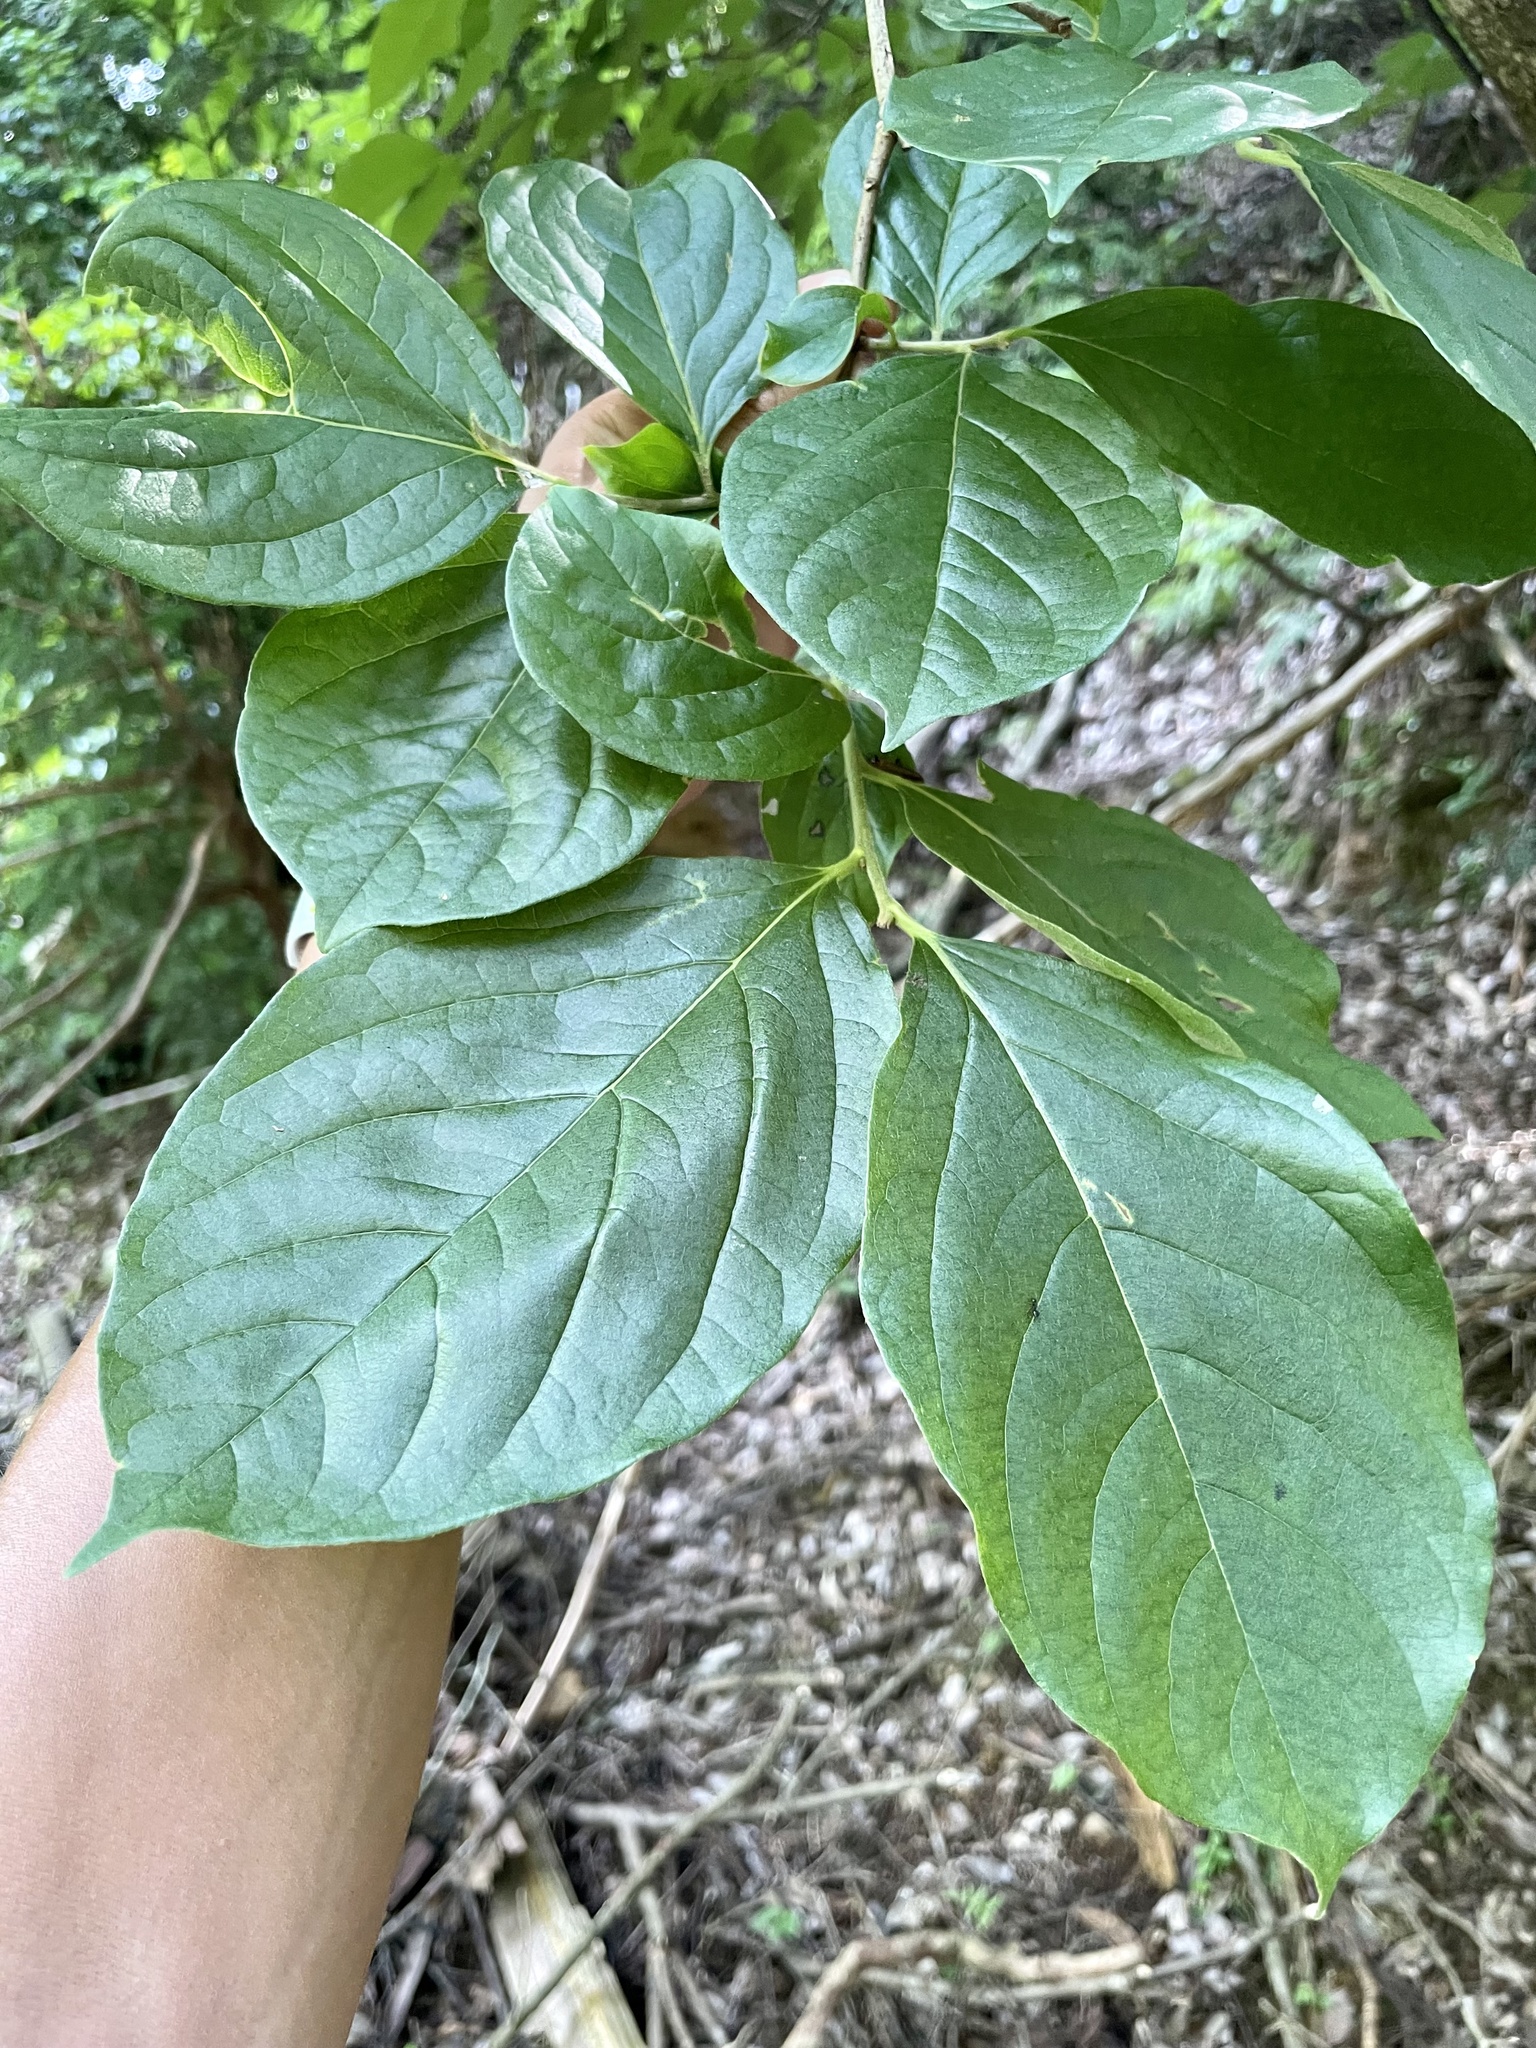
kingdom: Plantae
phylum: Tracheophyta
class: Magnoliopsida
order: Ericales
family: Ebenaceae
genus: Diospyros
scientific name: Diospyros kaki
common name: Persimmon
